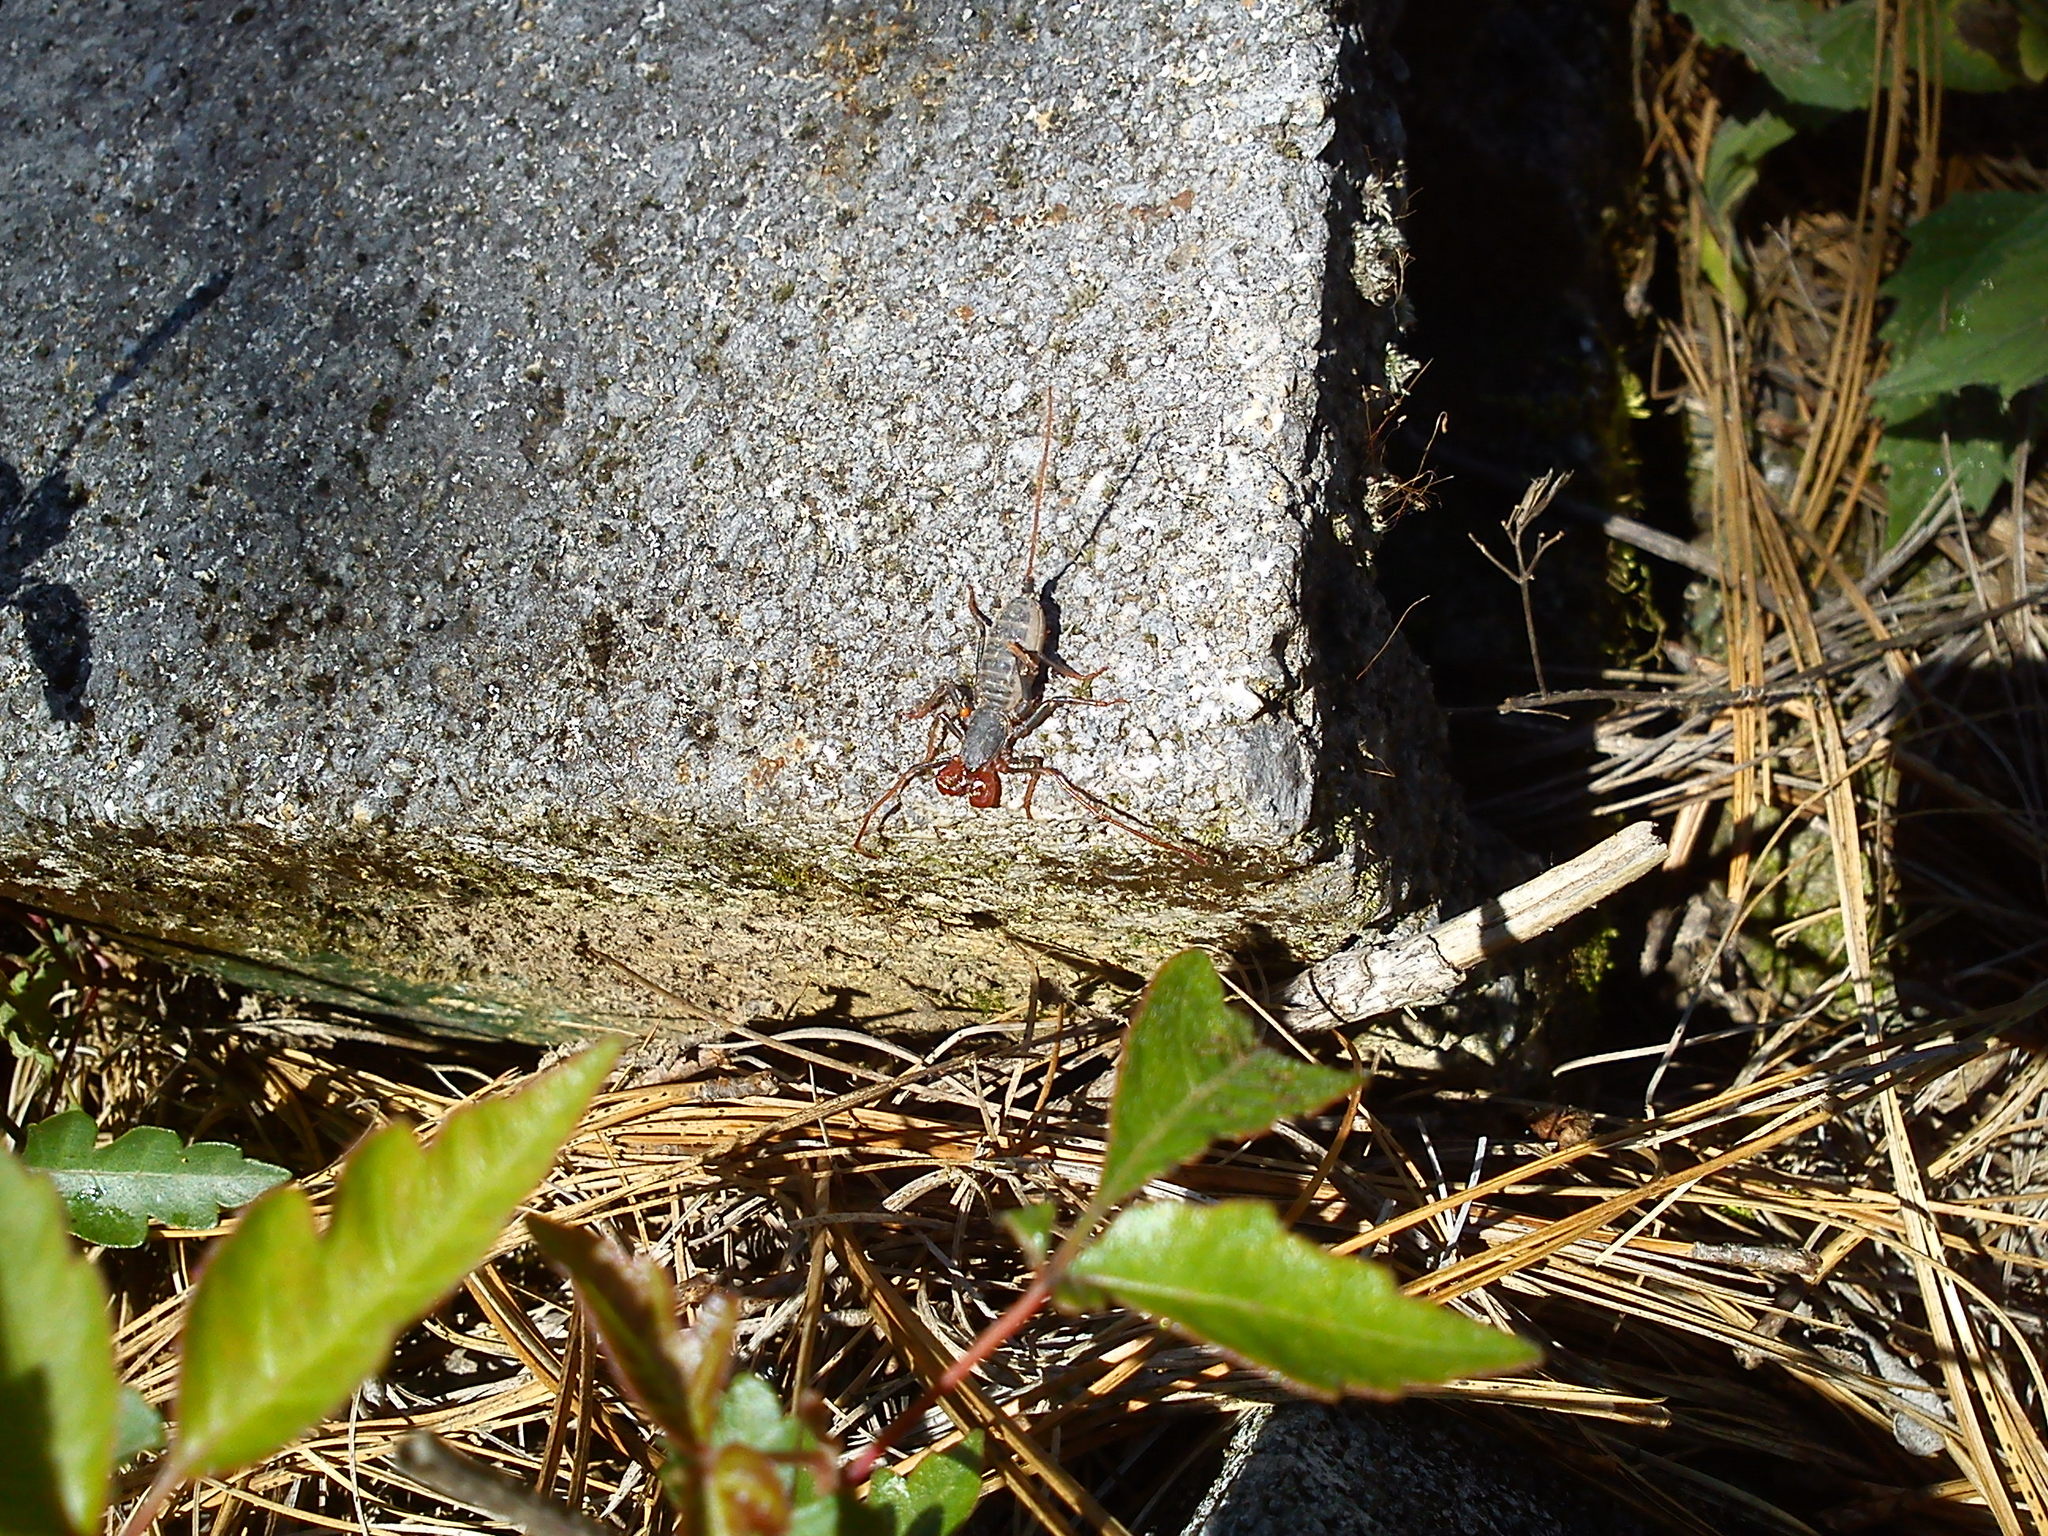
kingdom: Animalia
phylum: Arthropoda
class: Arachnida
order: Uropygi
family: Thelyphonidae
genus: Mastigoproctus
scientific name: Mastigoproctus giganteus
